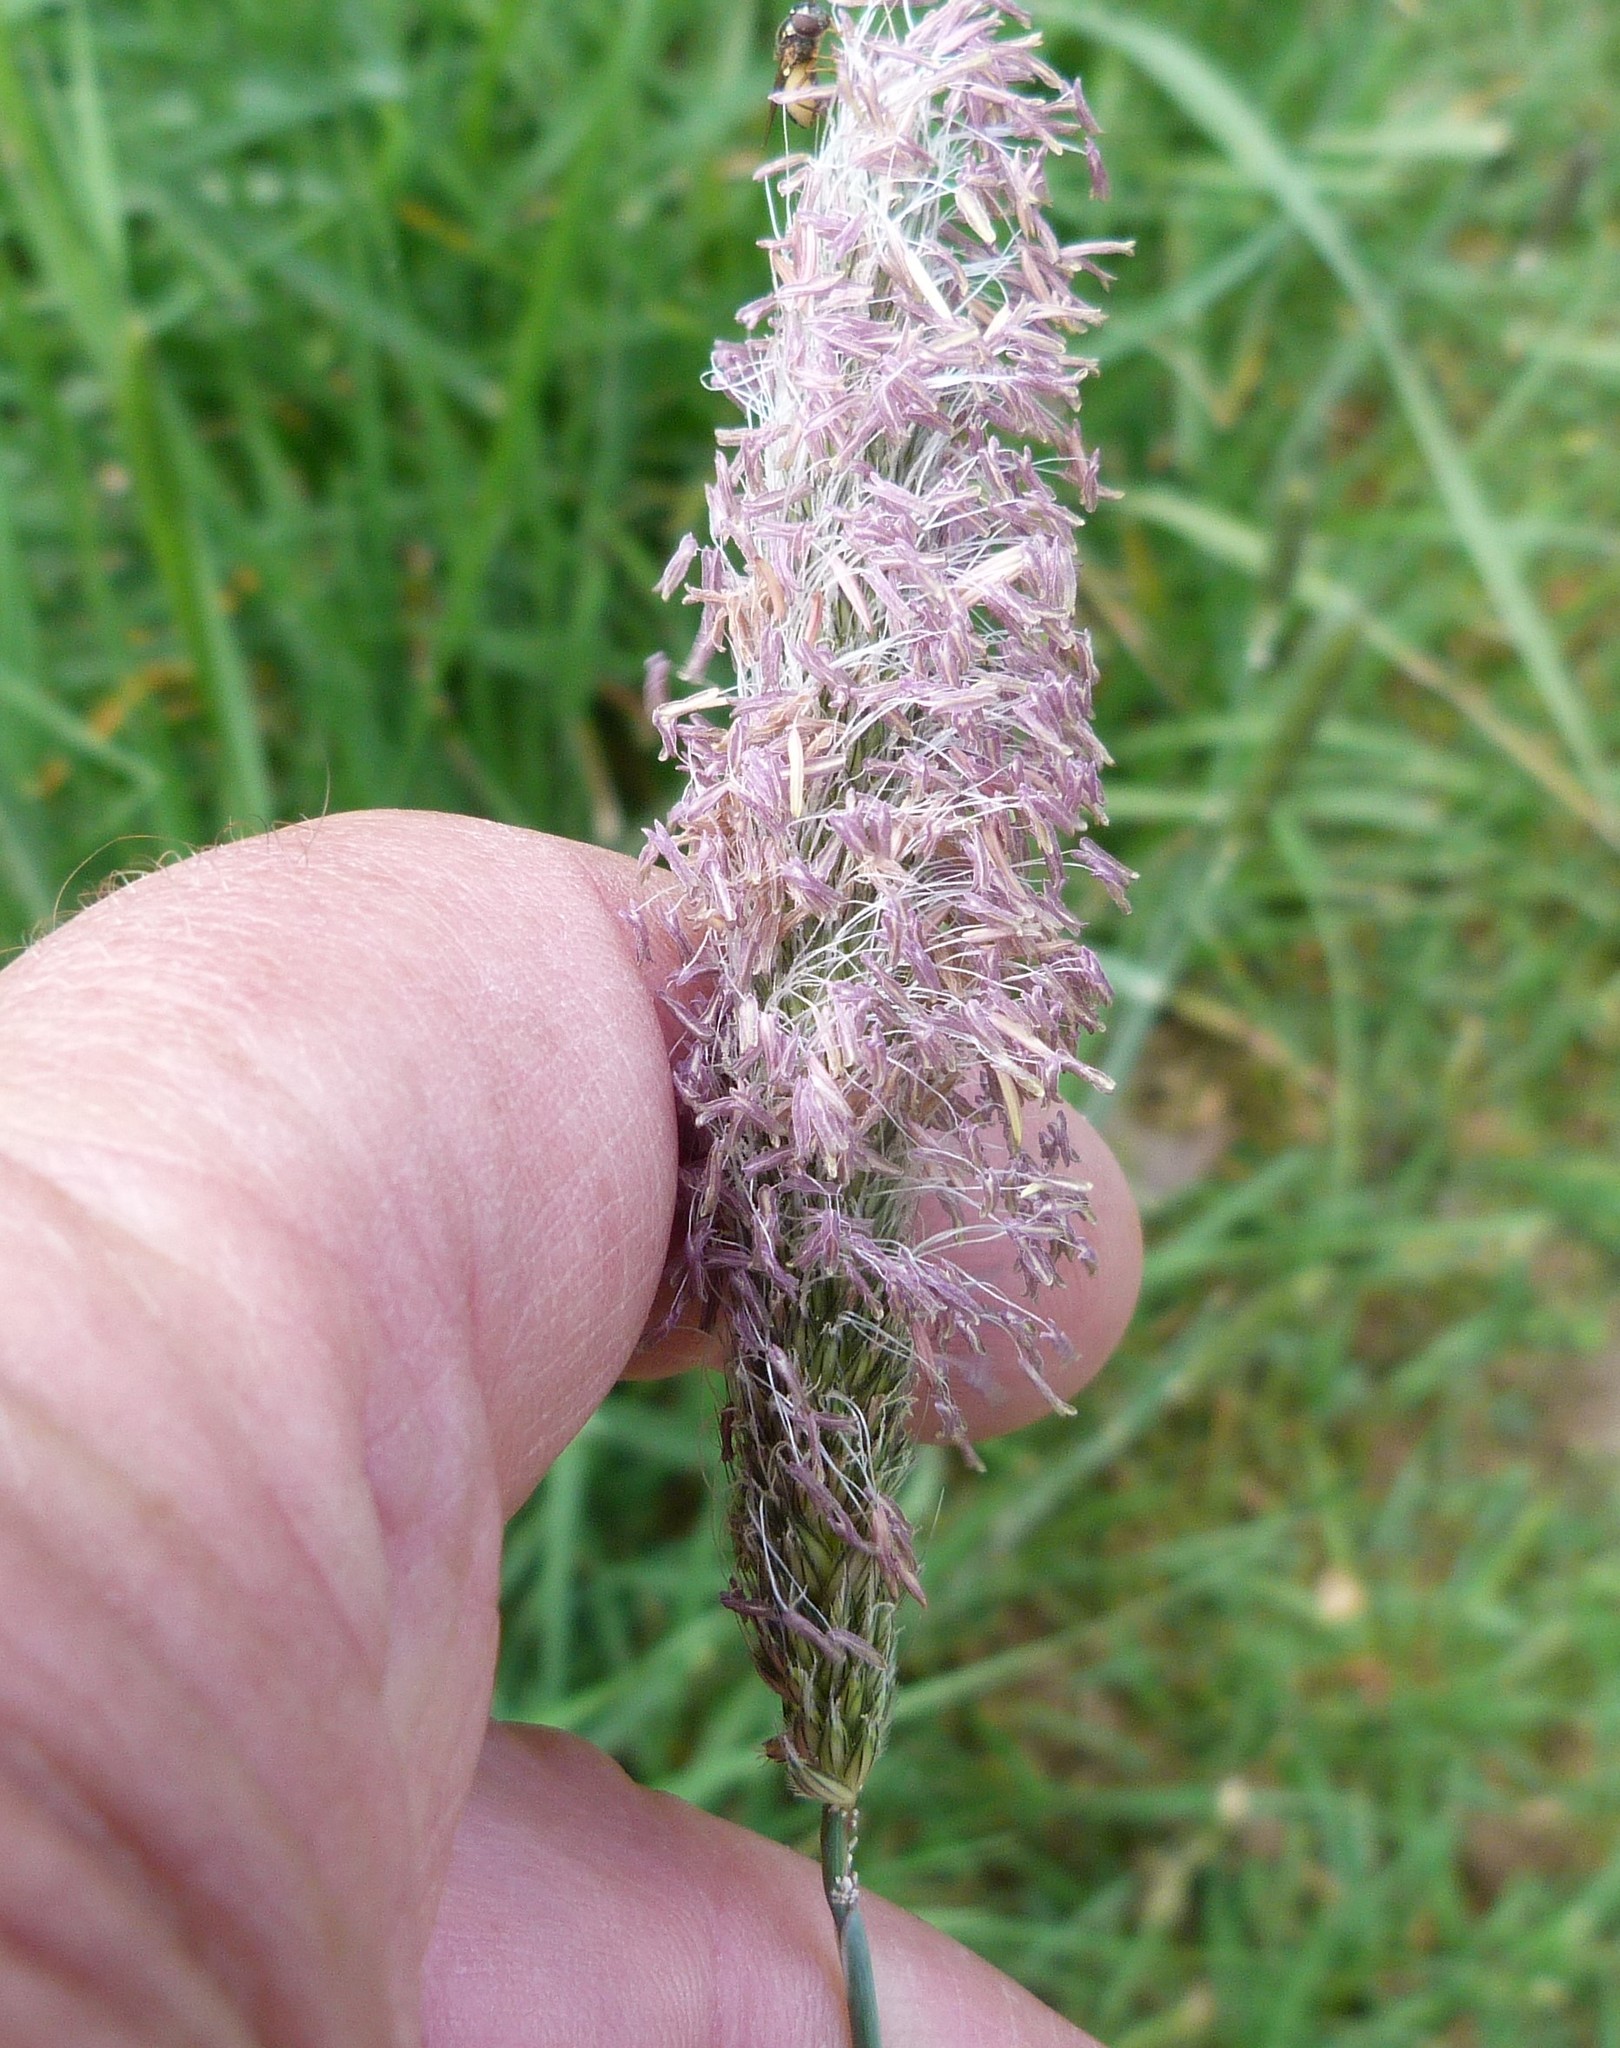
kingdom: Plantae
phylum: Tracheophyta
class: Liliopsida
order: Poales
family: Poaceae
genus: Phleum
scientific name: Phleum pratense
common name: Timothy grass
